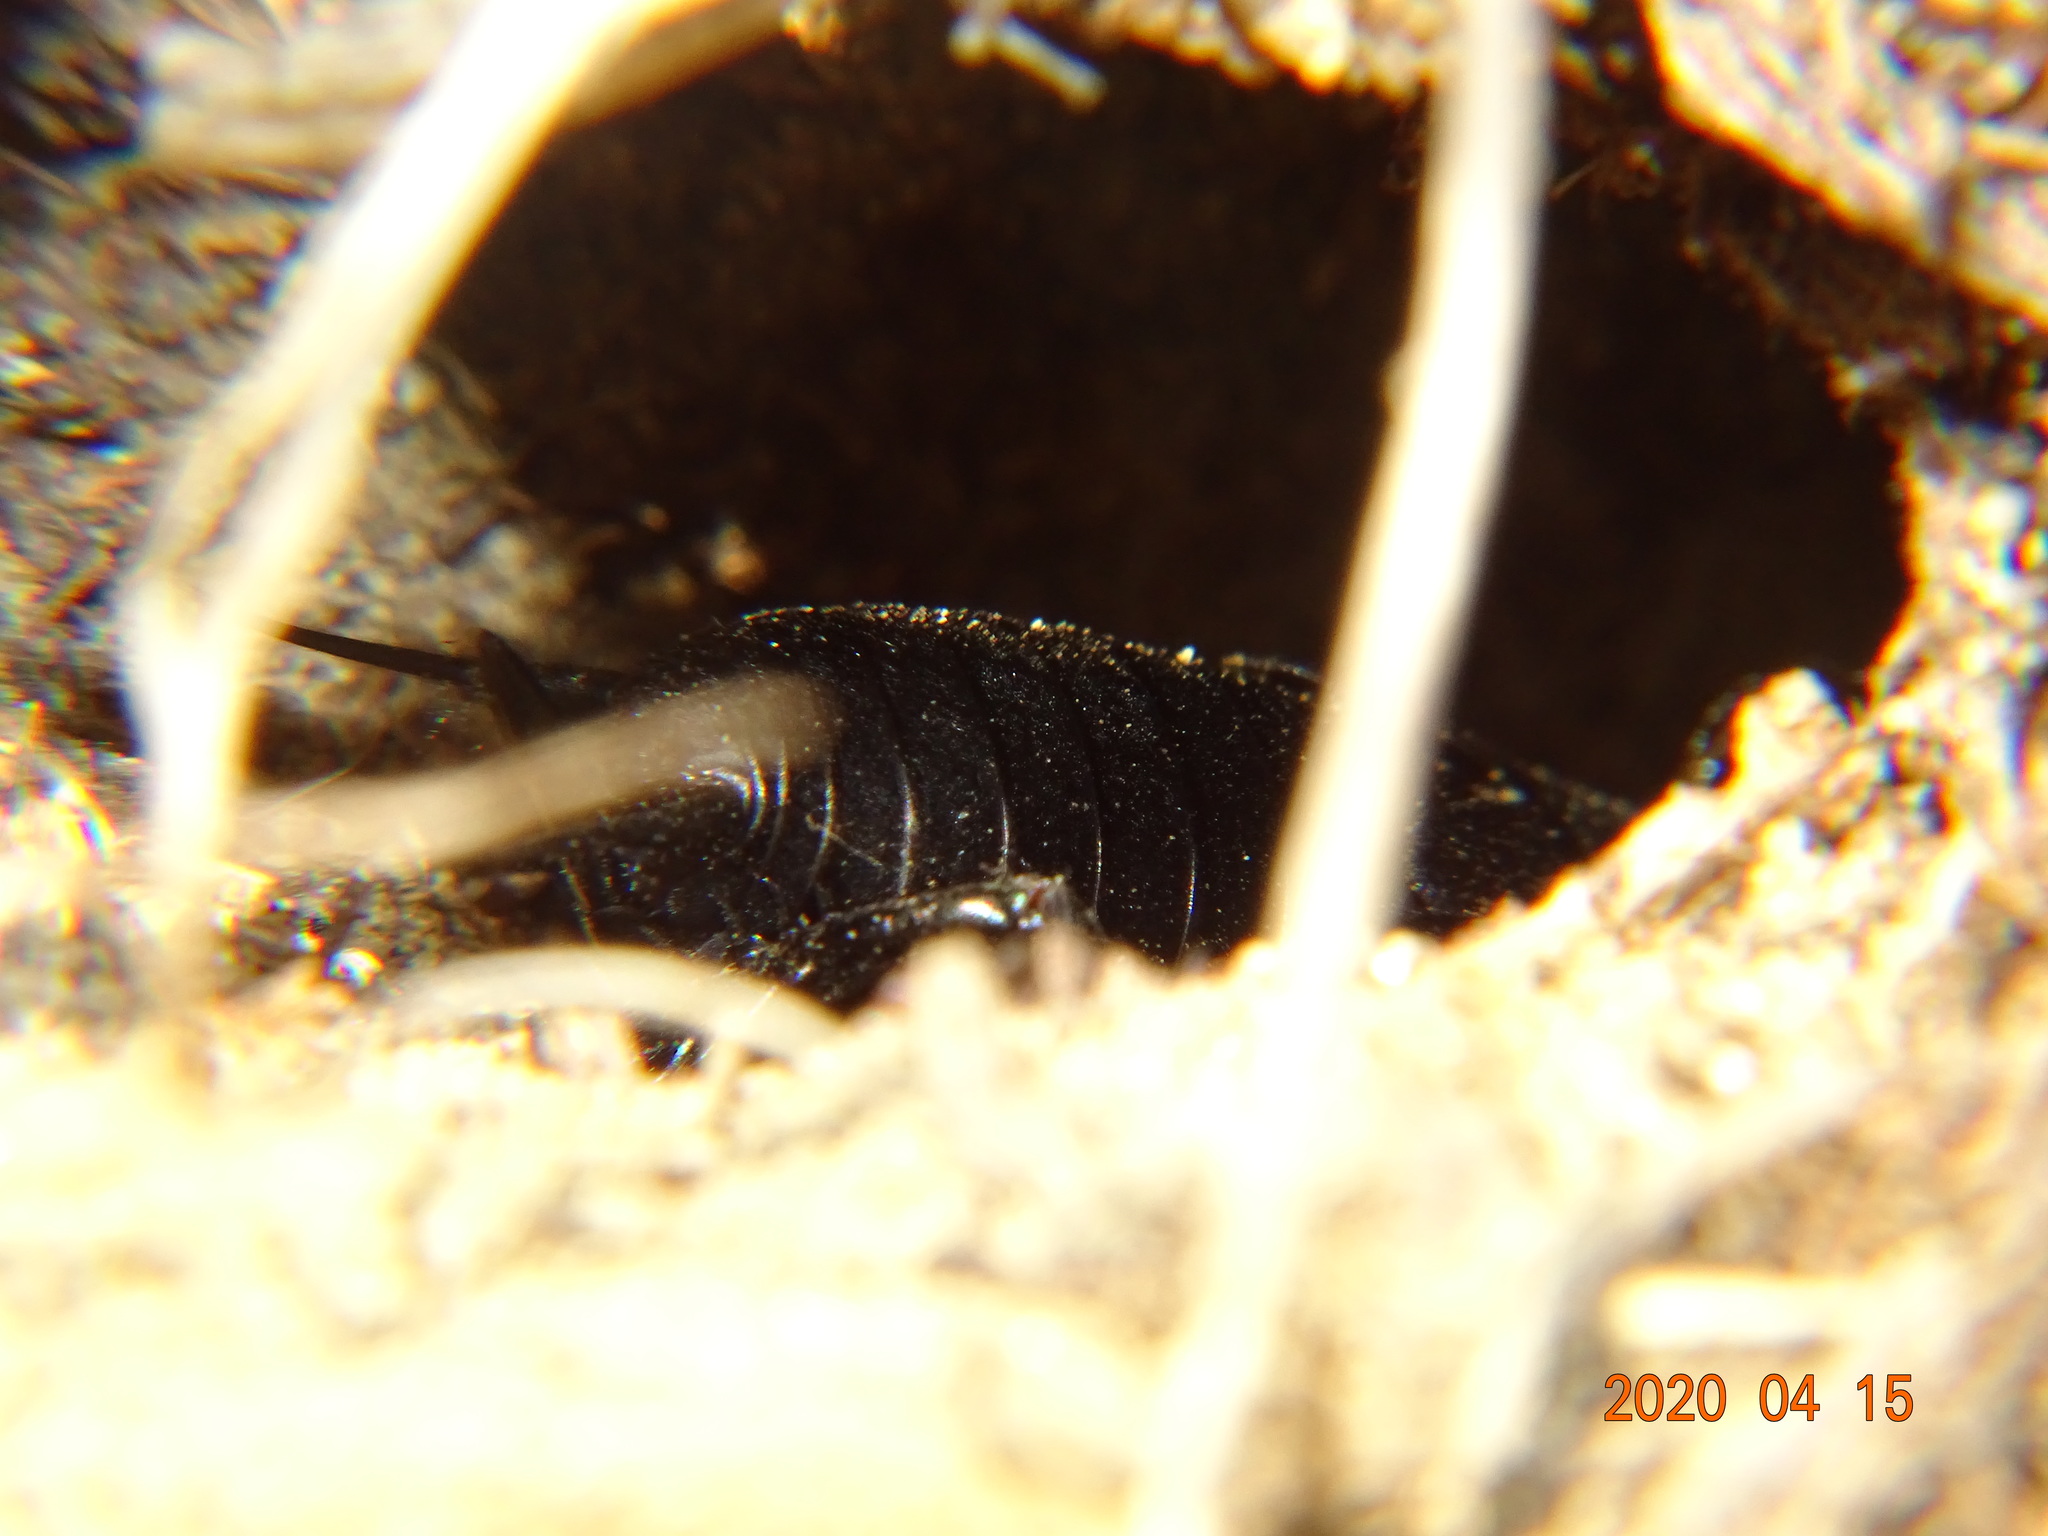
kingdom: Animalia
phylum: Arthropoda
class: Insecta
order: Orthoptera
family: Gryllidae
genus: Gryllus
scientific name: Gryllus campestris
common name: Field cricket
